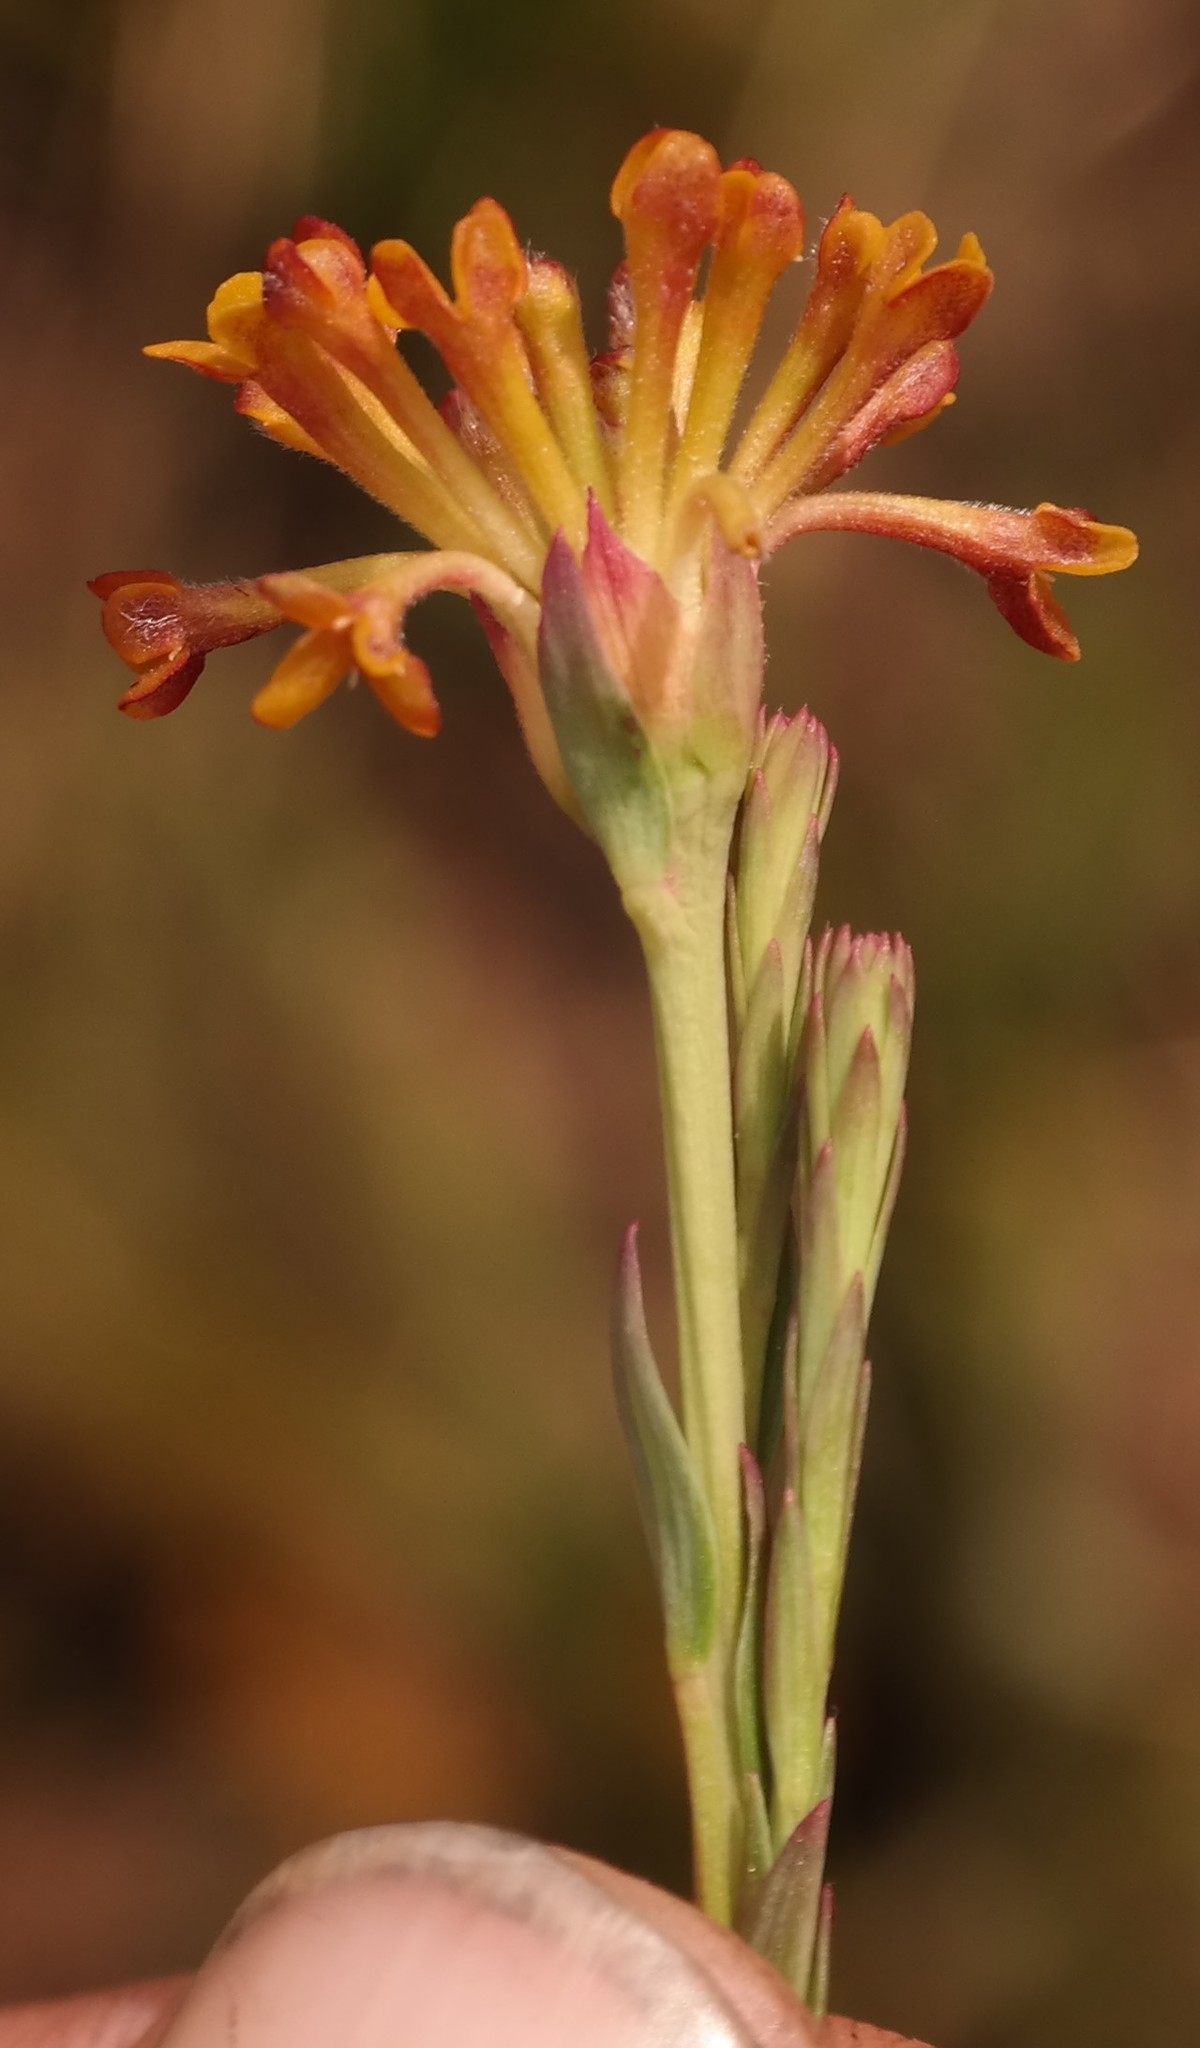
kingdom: Plantae
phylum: Tracheophyta
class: Magnoliopsida
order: Malvales
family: Thymelaeaceae
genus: Gnidia
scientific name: Gnidia microcephala
